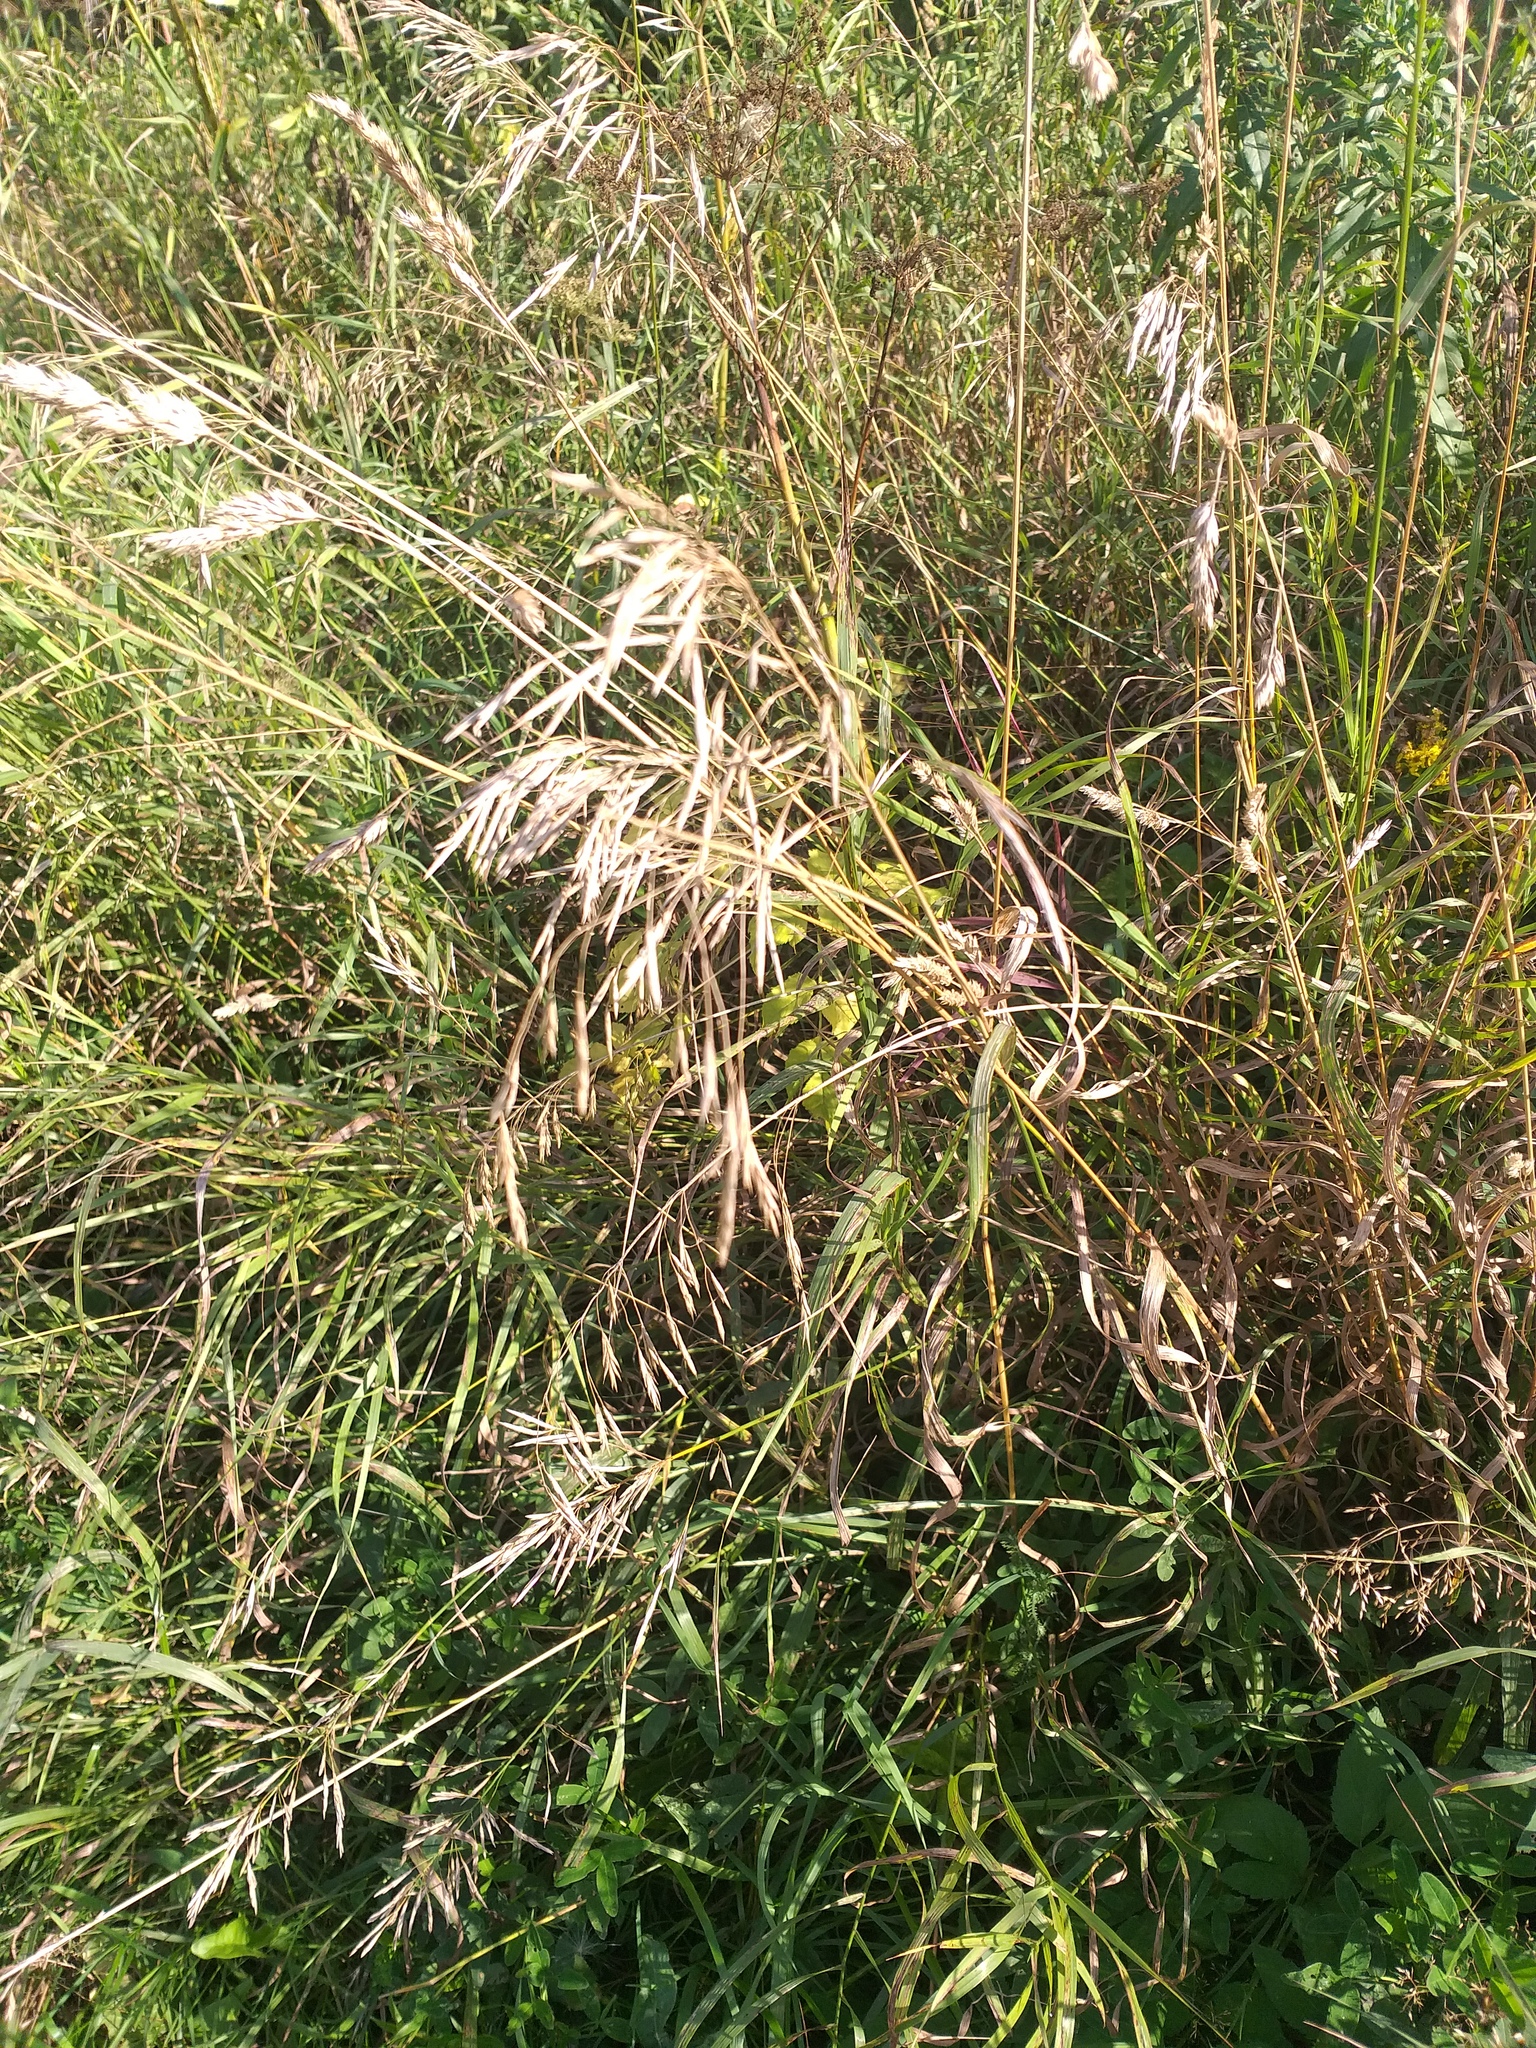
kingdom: Plantae
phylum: Tracheophyta
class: Liliopsida
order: Poales
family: Poaceae
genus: Bromus
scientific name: Bromus inermis
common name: Smooth brome
